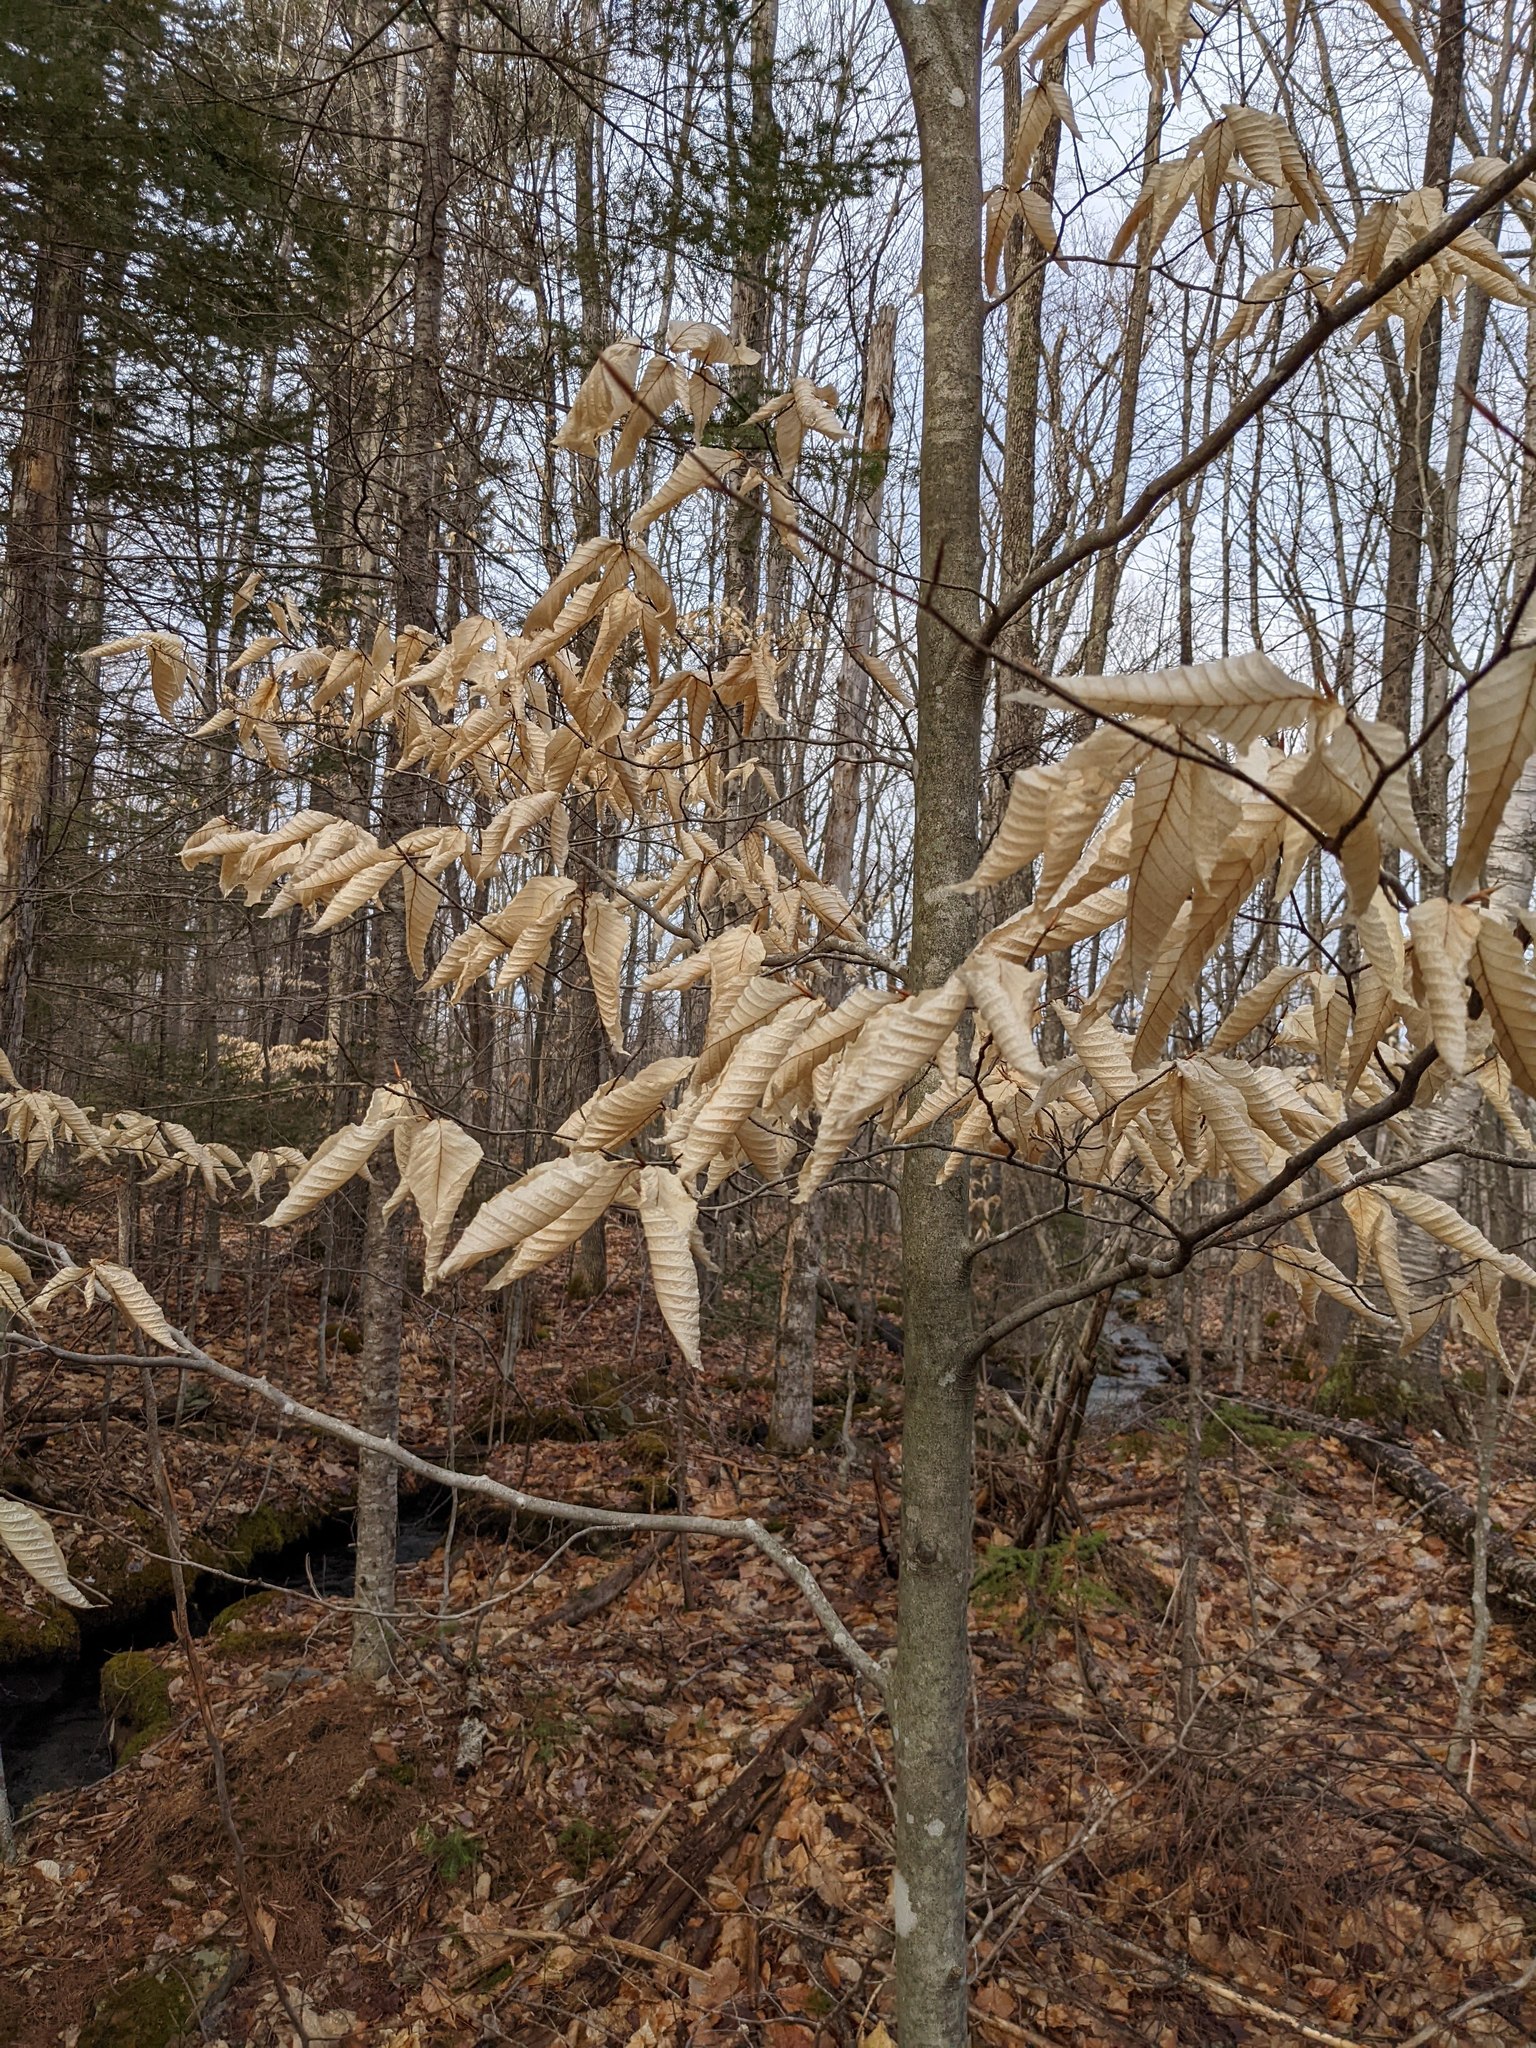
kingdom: Plantae
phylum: Tracheophyta
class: Magnoliopsida
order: Fagales
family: Fagaceae
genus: Fagus
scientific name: Fagus grandifolia
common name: American beech
